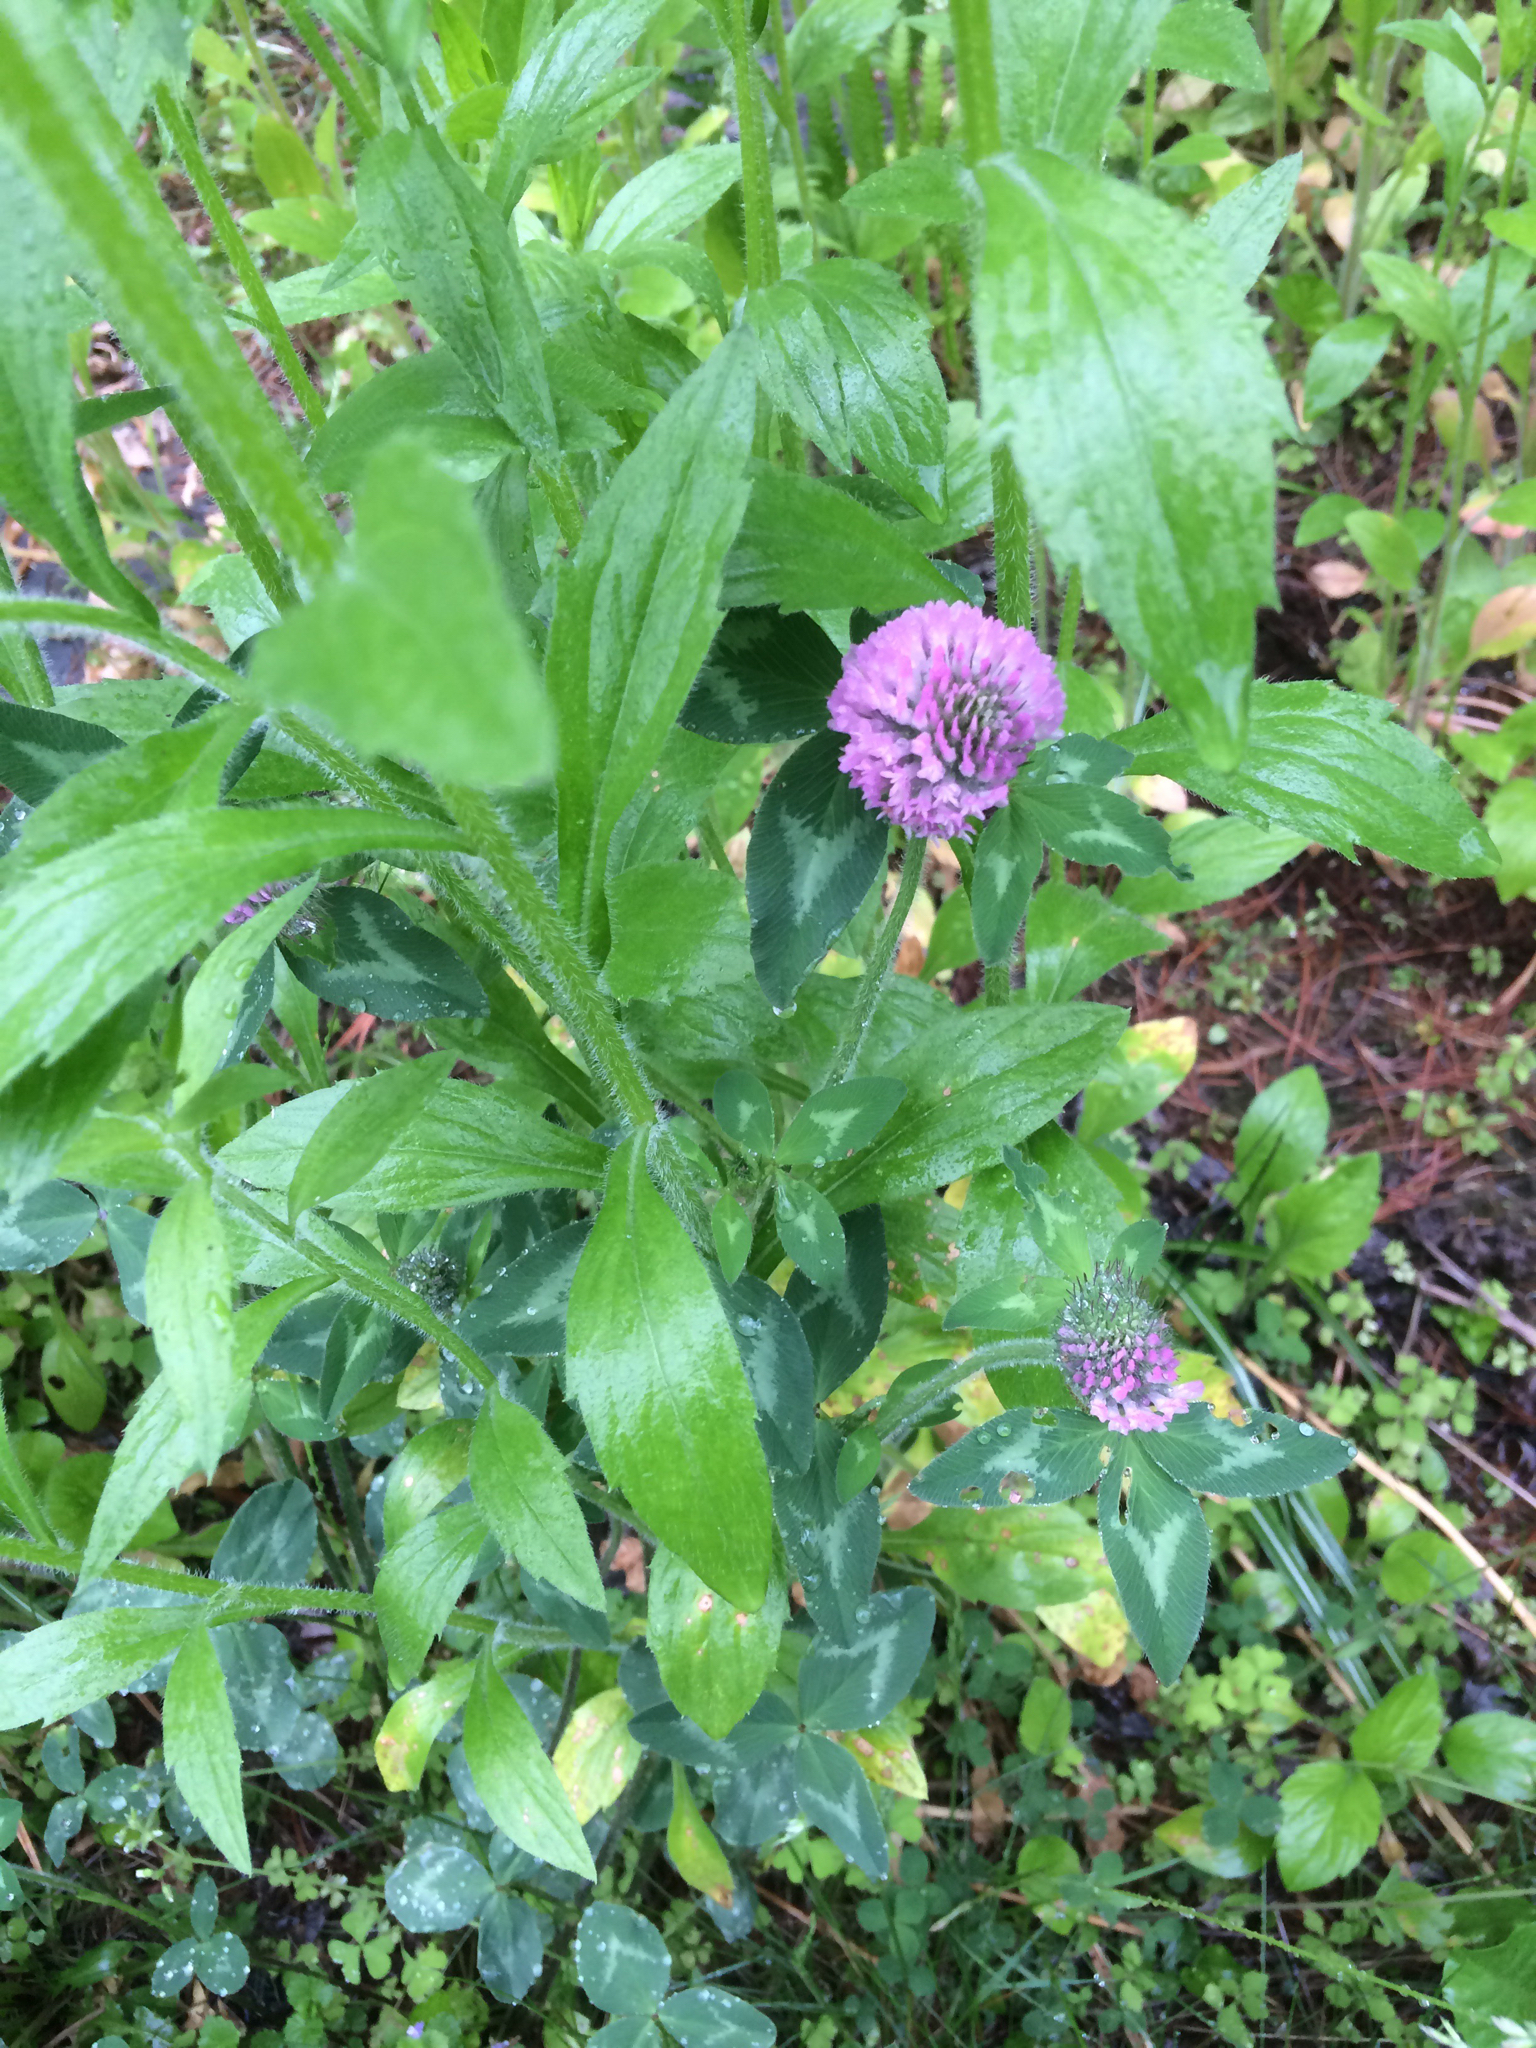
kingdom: Plantae
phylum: Tracheophyta
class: Magnoliopsida
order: Fabales
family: Fabaceae
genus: Trifolium
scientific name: Trifolium pratense
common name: Red clover
